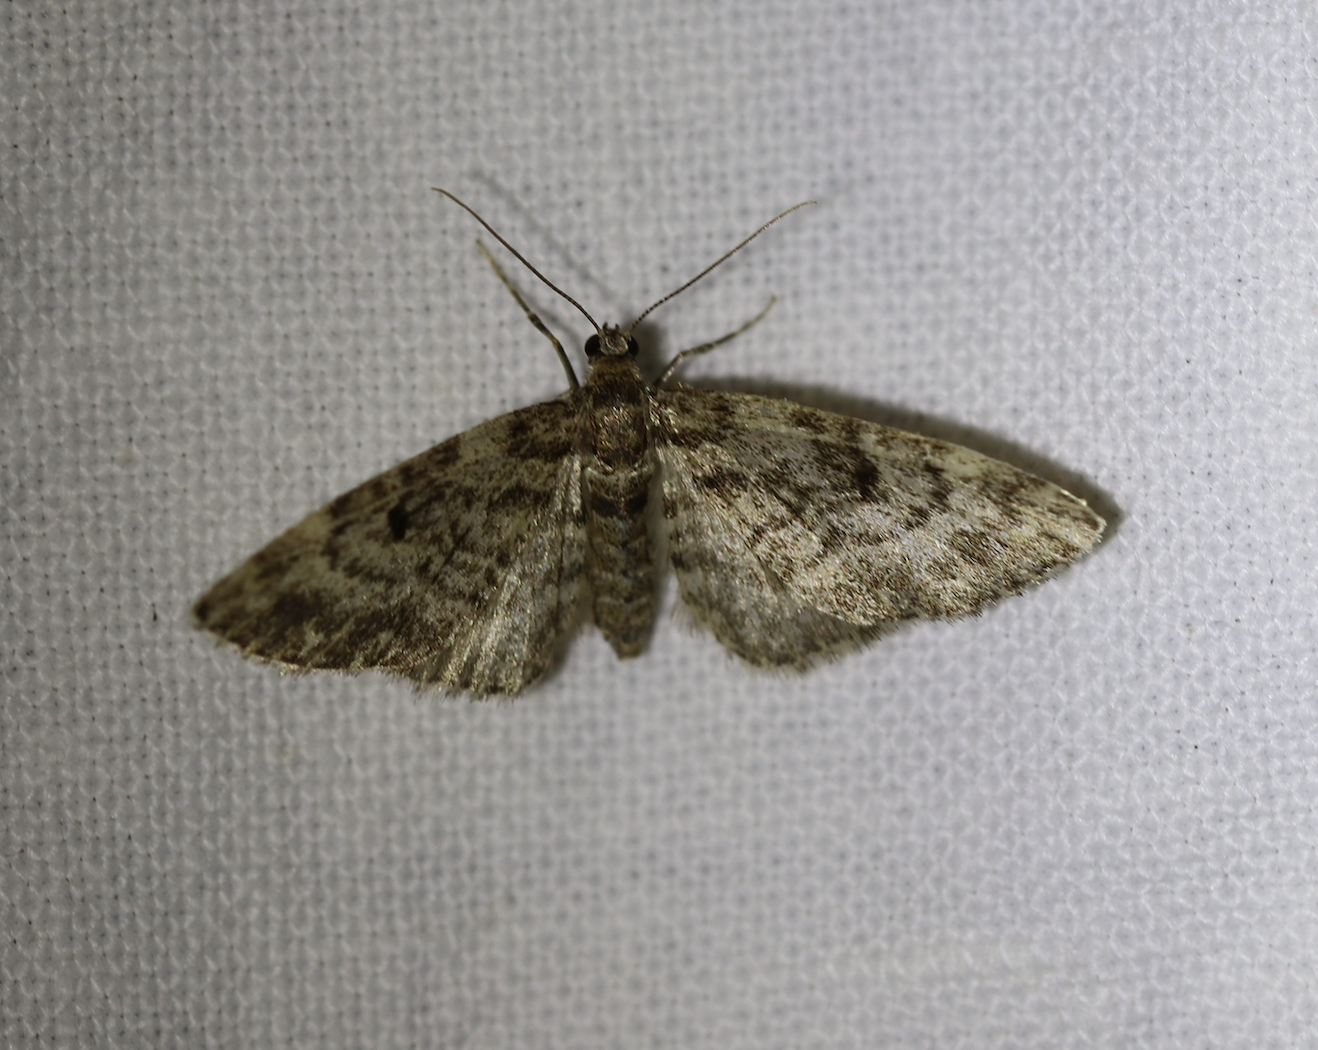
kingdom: Animalia
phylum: Arthropoda
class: Insecta
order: Lepidoptera
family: Geometridae
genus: Eupithecia
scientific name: Eupithecia tantillaria
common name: Dwarf pug
